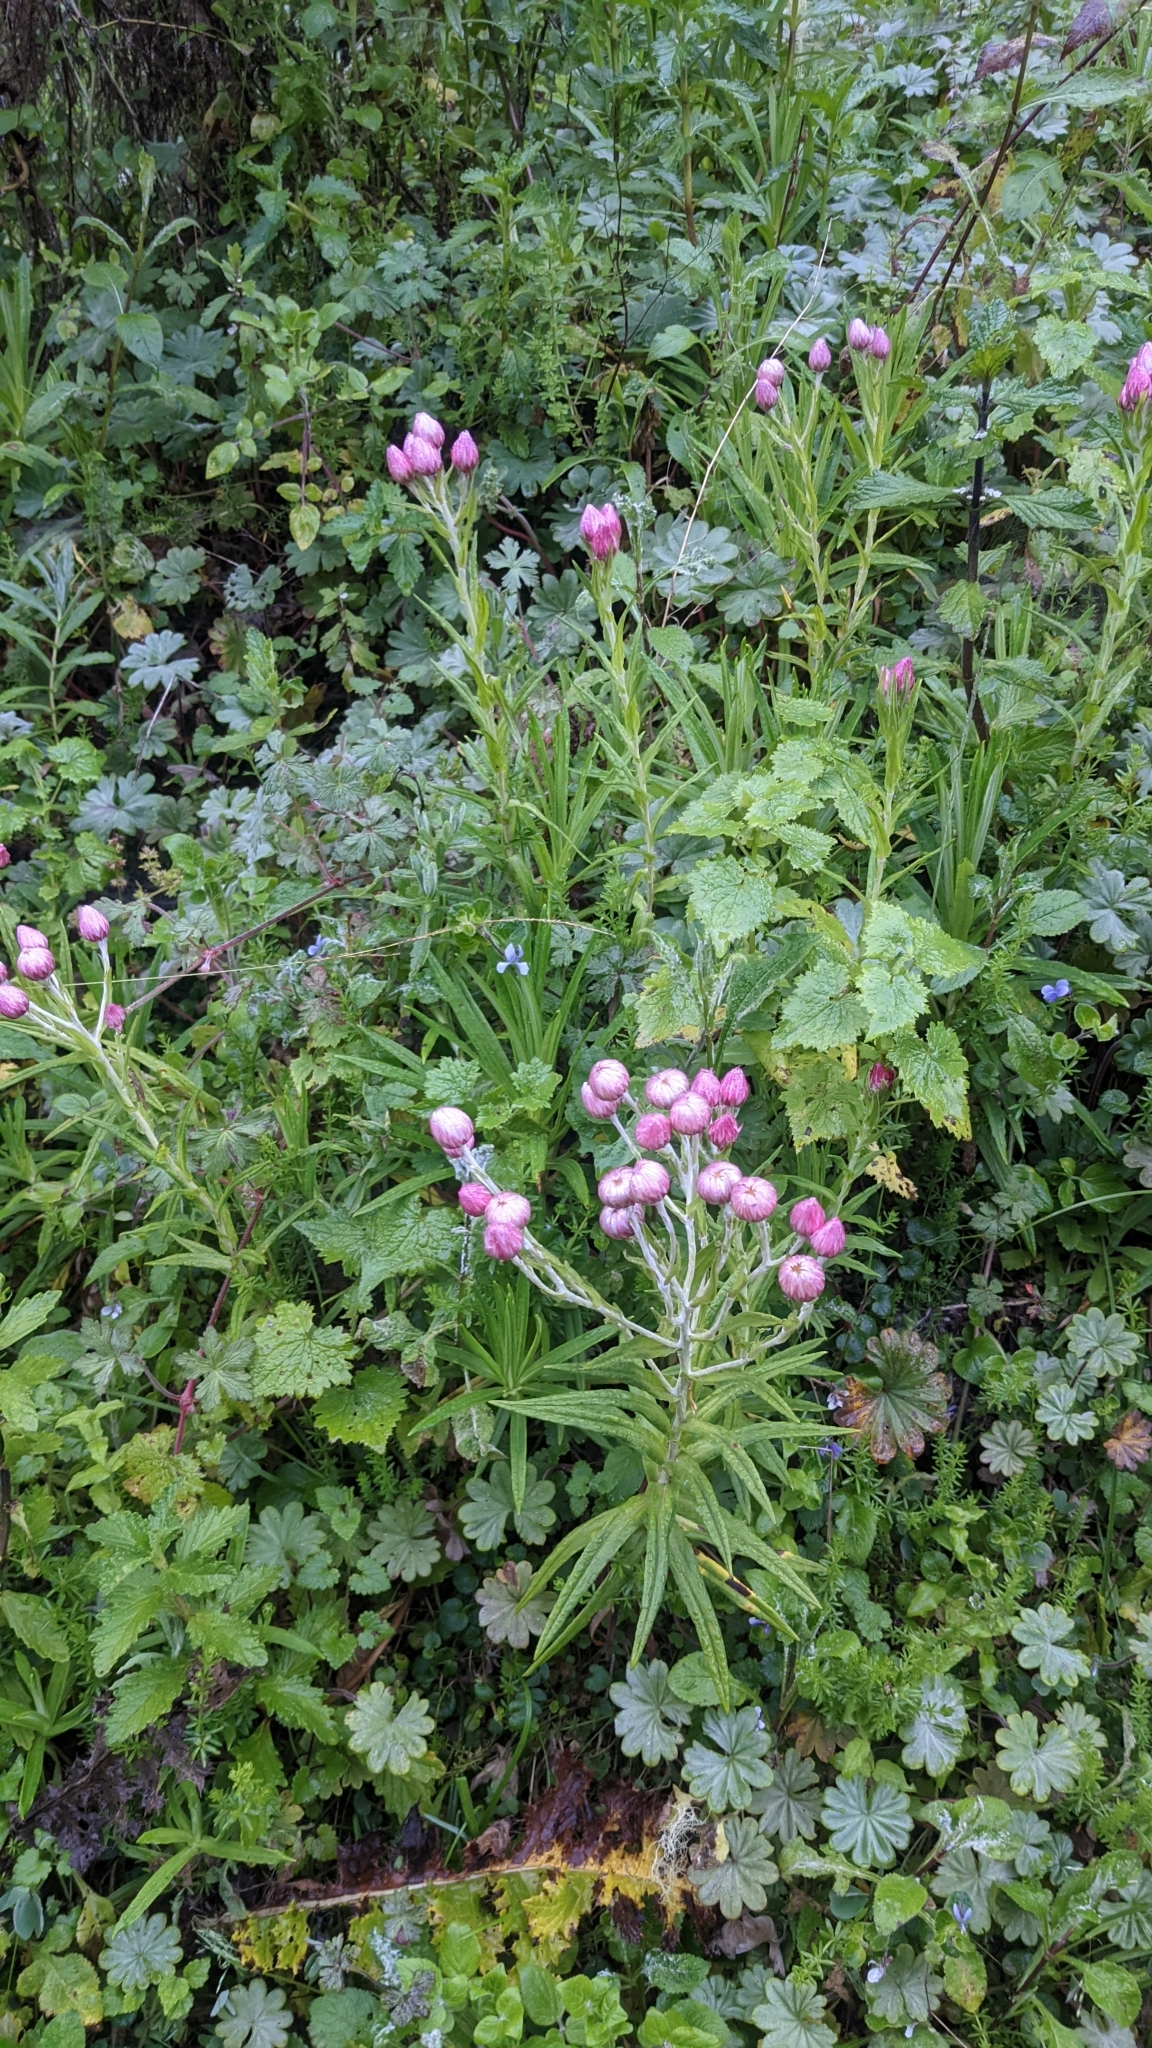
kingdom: Plantae
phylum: Tracheophyta
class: Magnoliopsida
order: Asterales
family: Asteraceae
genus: Helichrysum
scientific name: Helichrysum formosissimum
